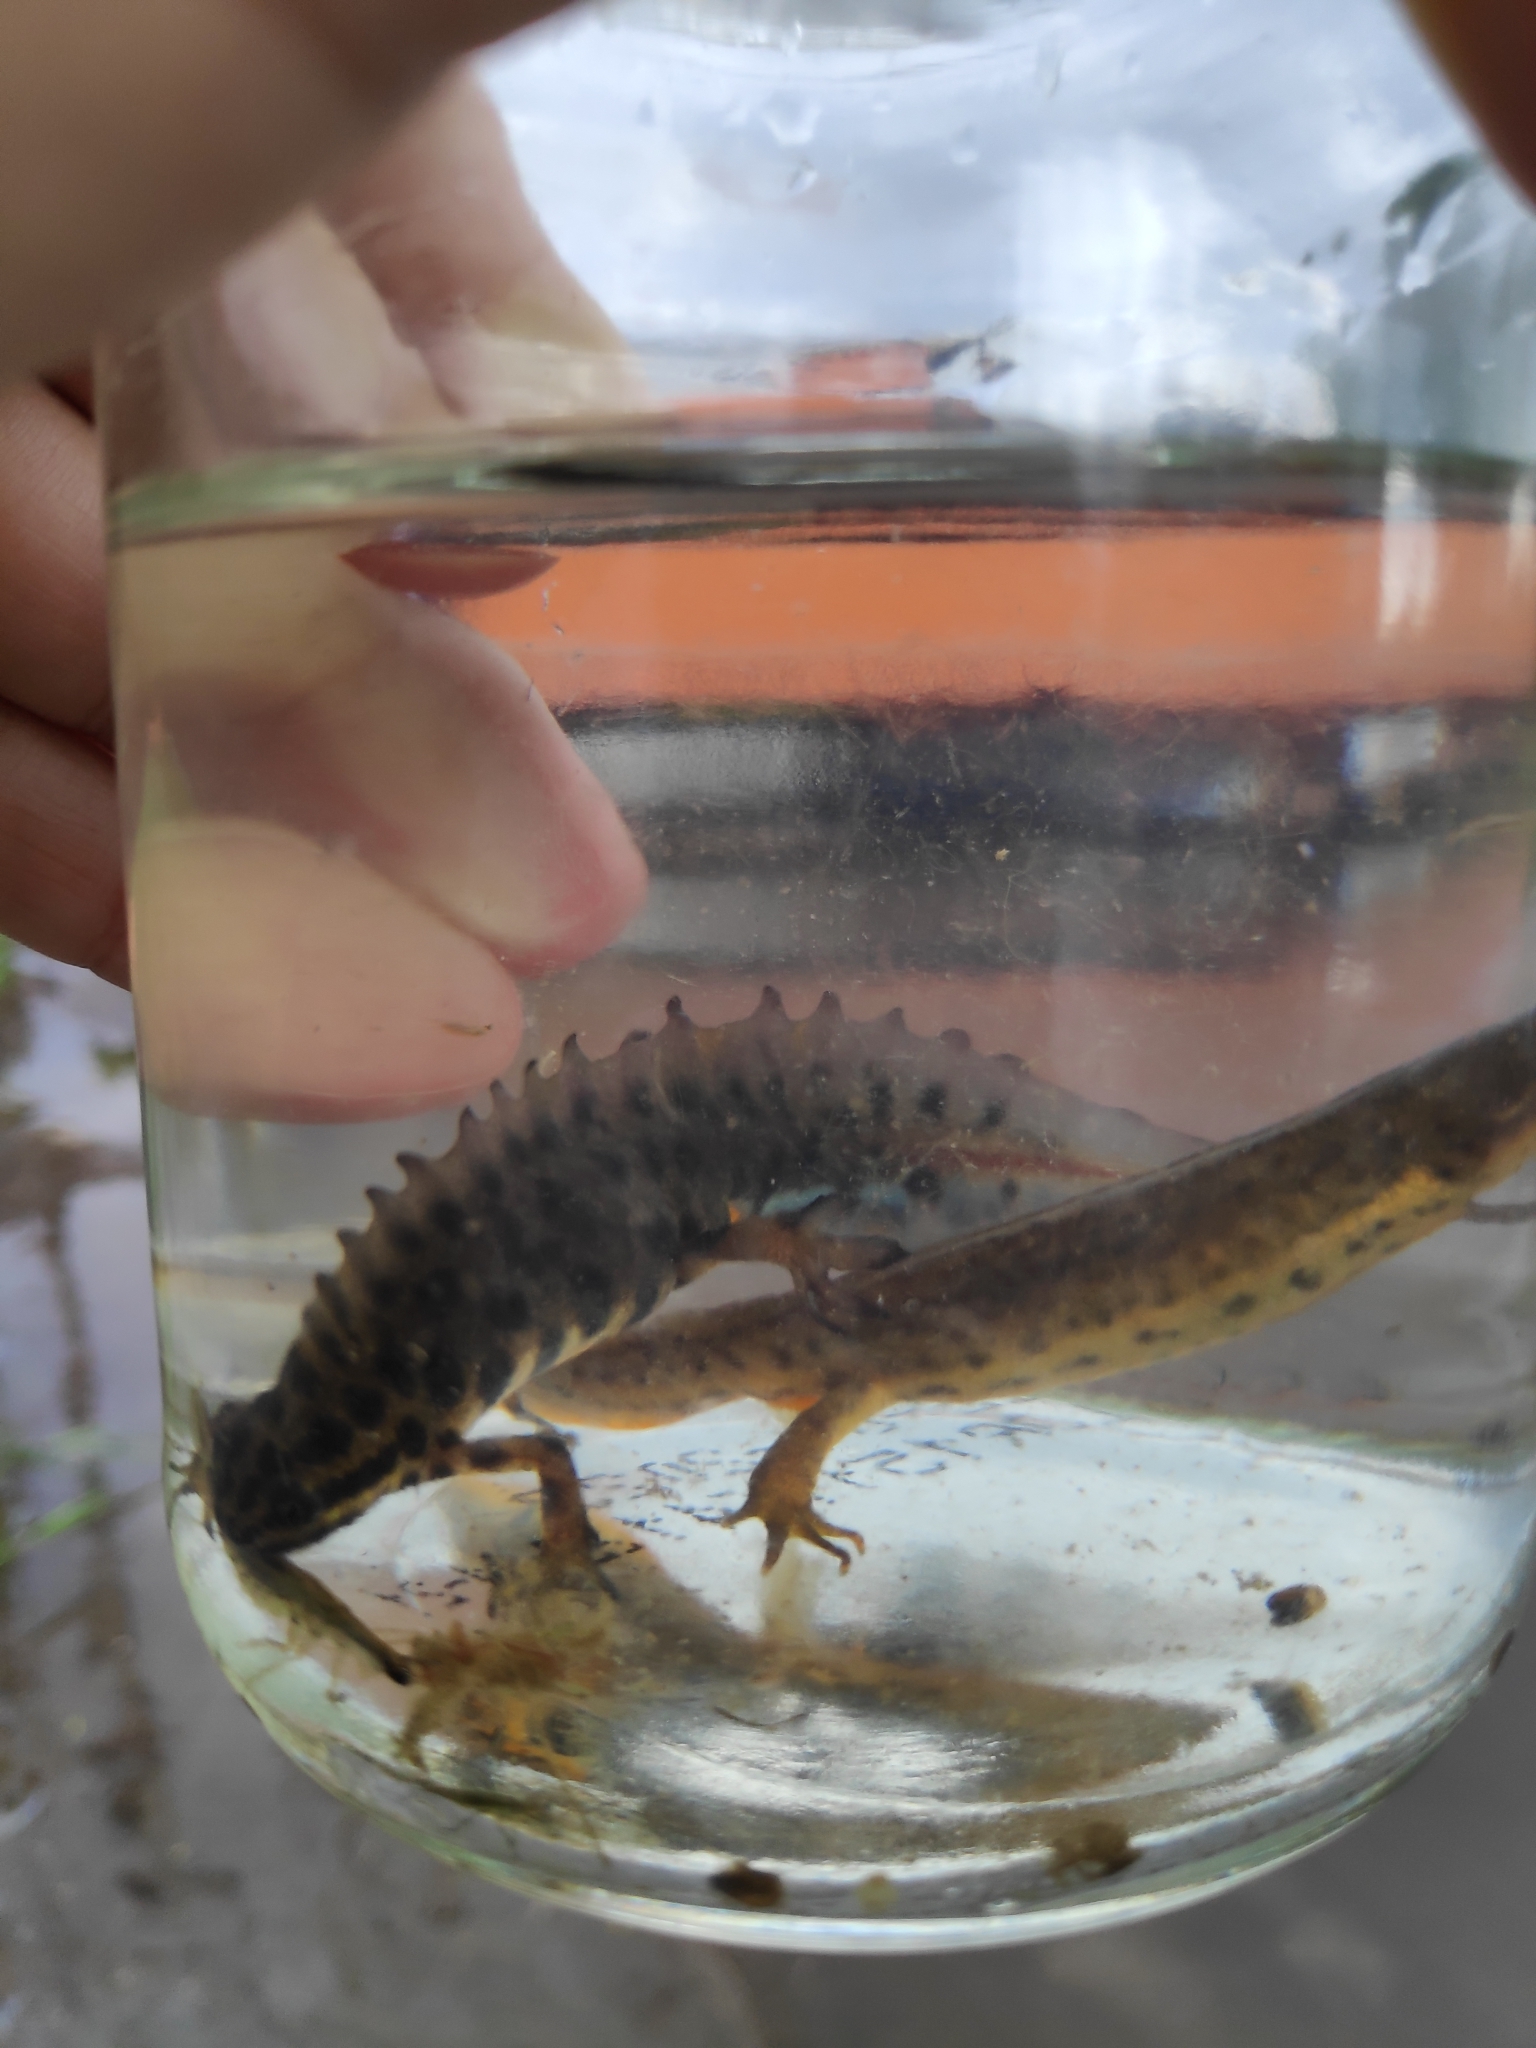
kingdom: Animalia
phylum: Chordata
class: Amphibia
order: Caudata
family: Salamandridae
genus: Lissotriton
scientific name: Lissotriton vulgaris
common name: Smooth newt
